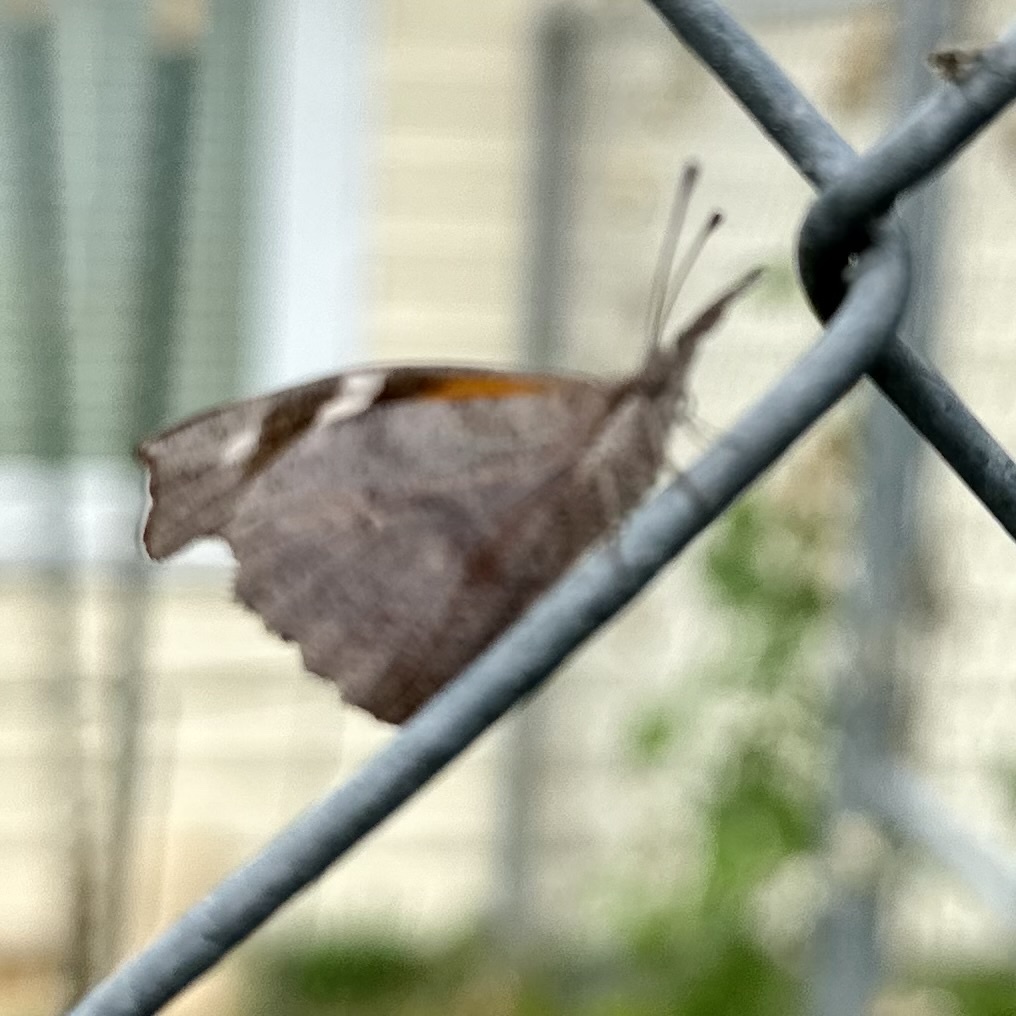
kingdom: Animalia
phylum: Arthropoda
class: Insecta
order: Lepidoptera
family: Nymphalidae
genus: Libytheana
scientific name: Libytheana carinenta
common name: American snout
